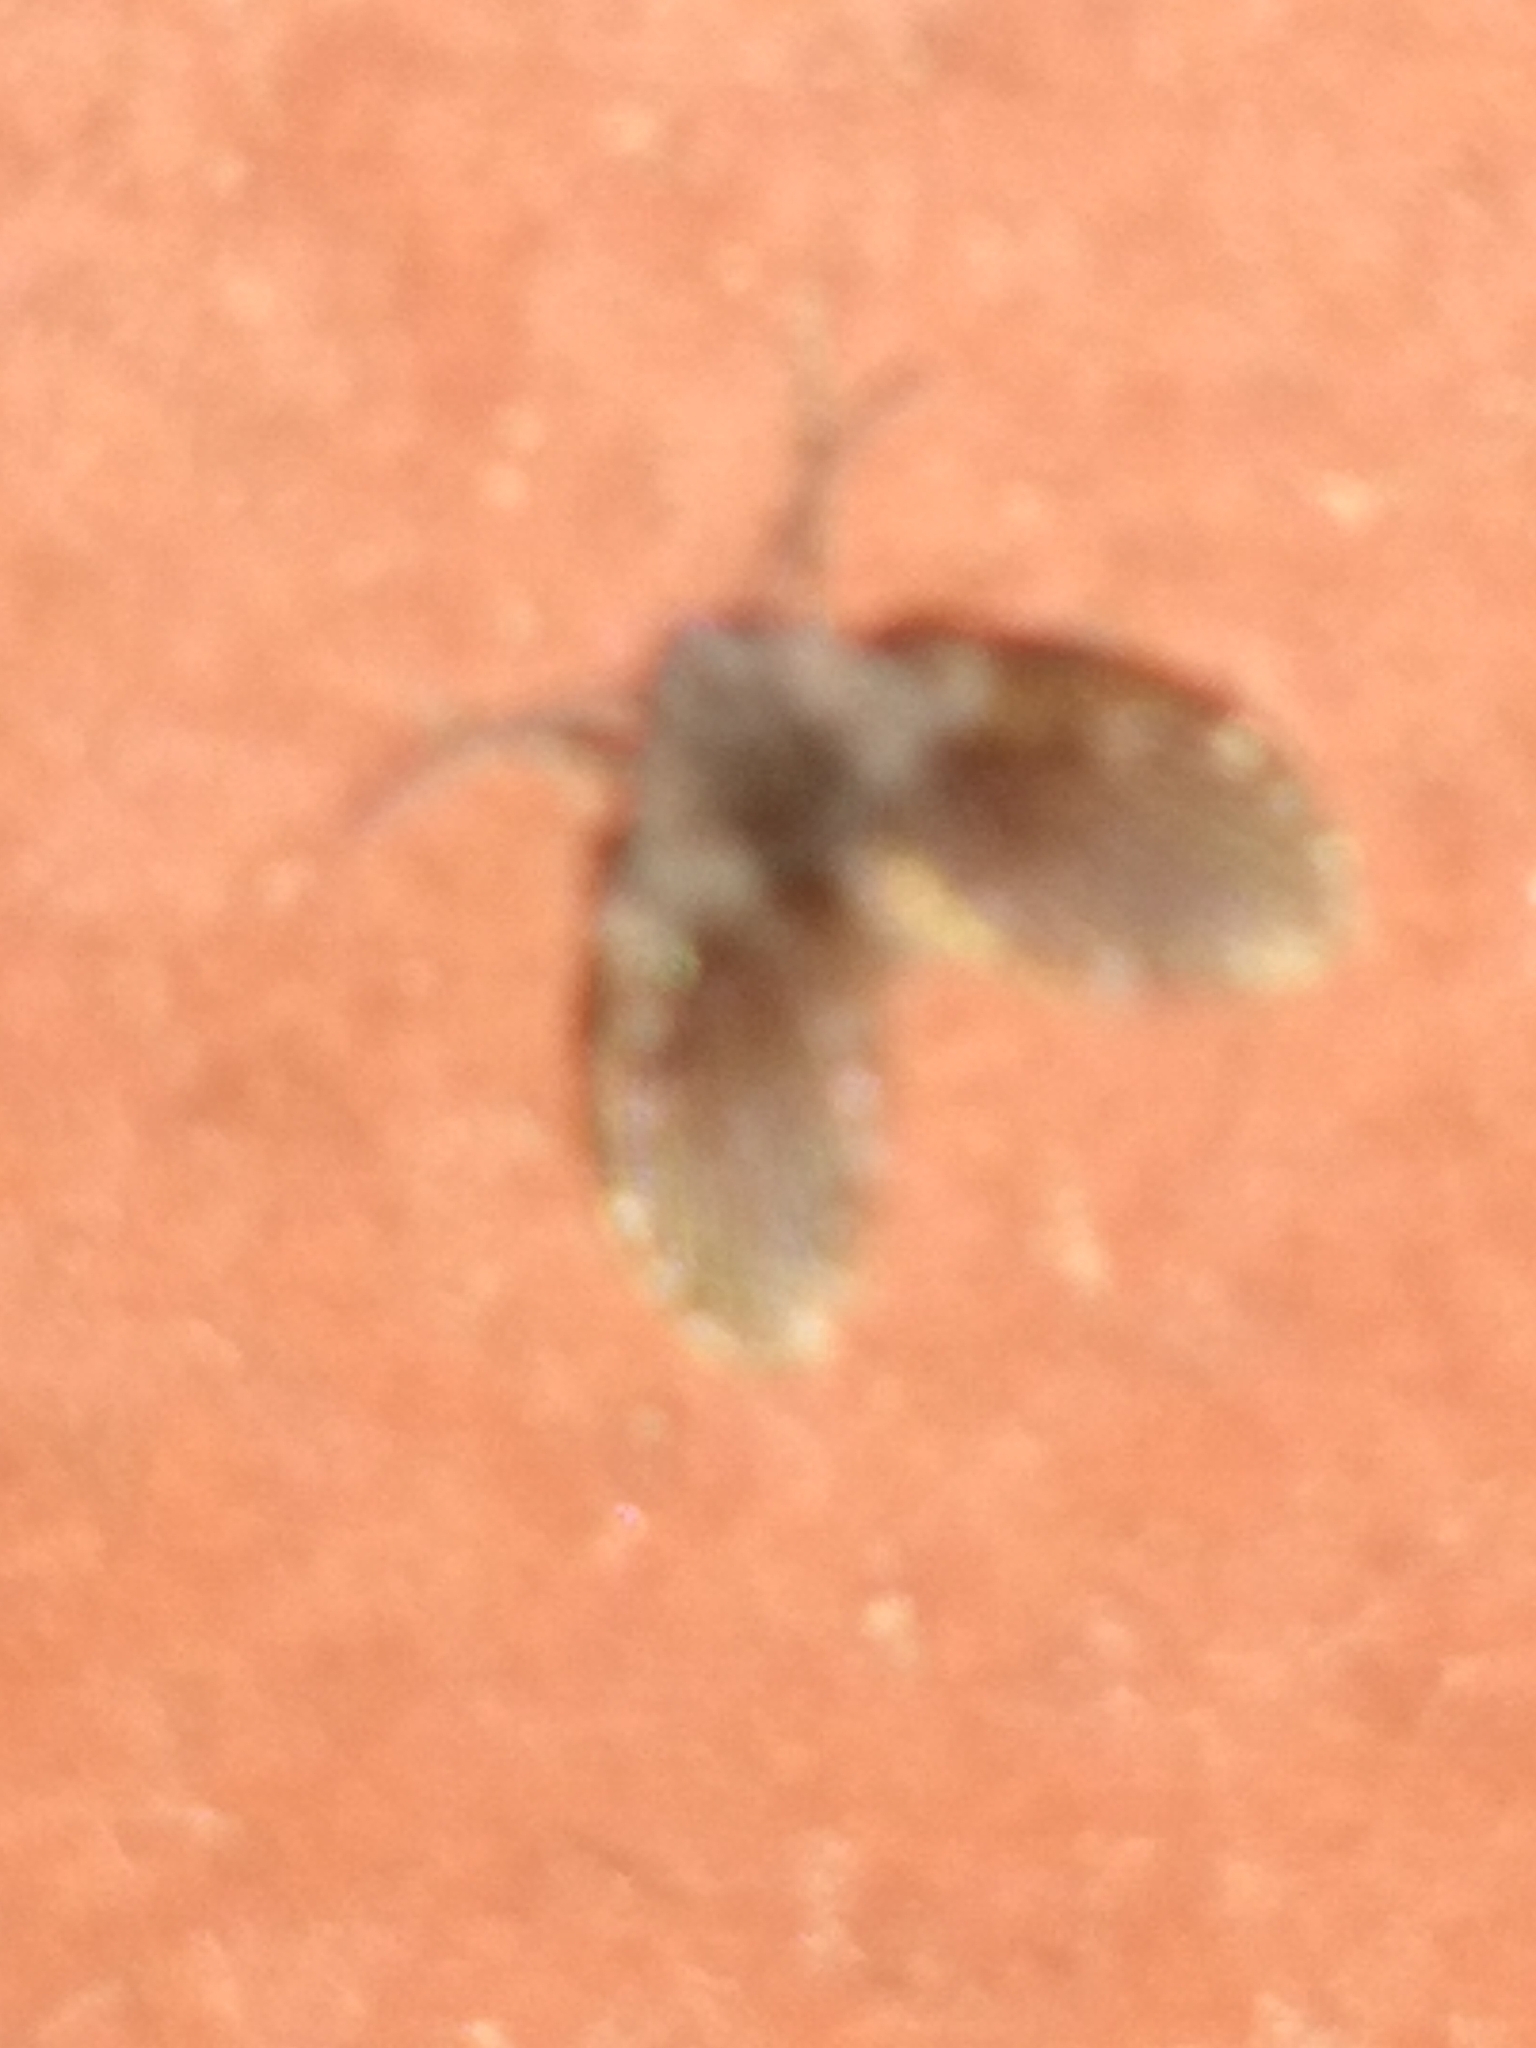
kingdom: Animalia
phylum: Arthropoda
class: Insecta
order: Diptera
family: Psychodidae
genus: Clogmia
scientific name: Clogmia albipunctatus
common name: White-spotted moth fly
